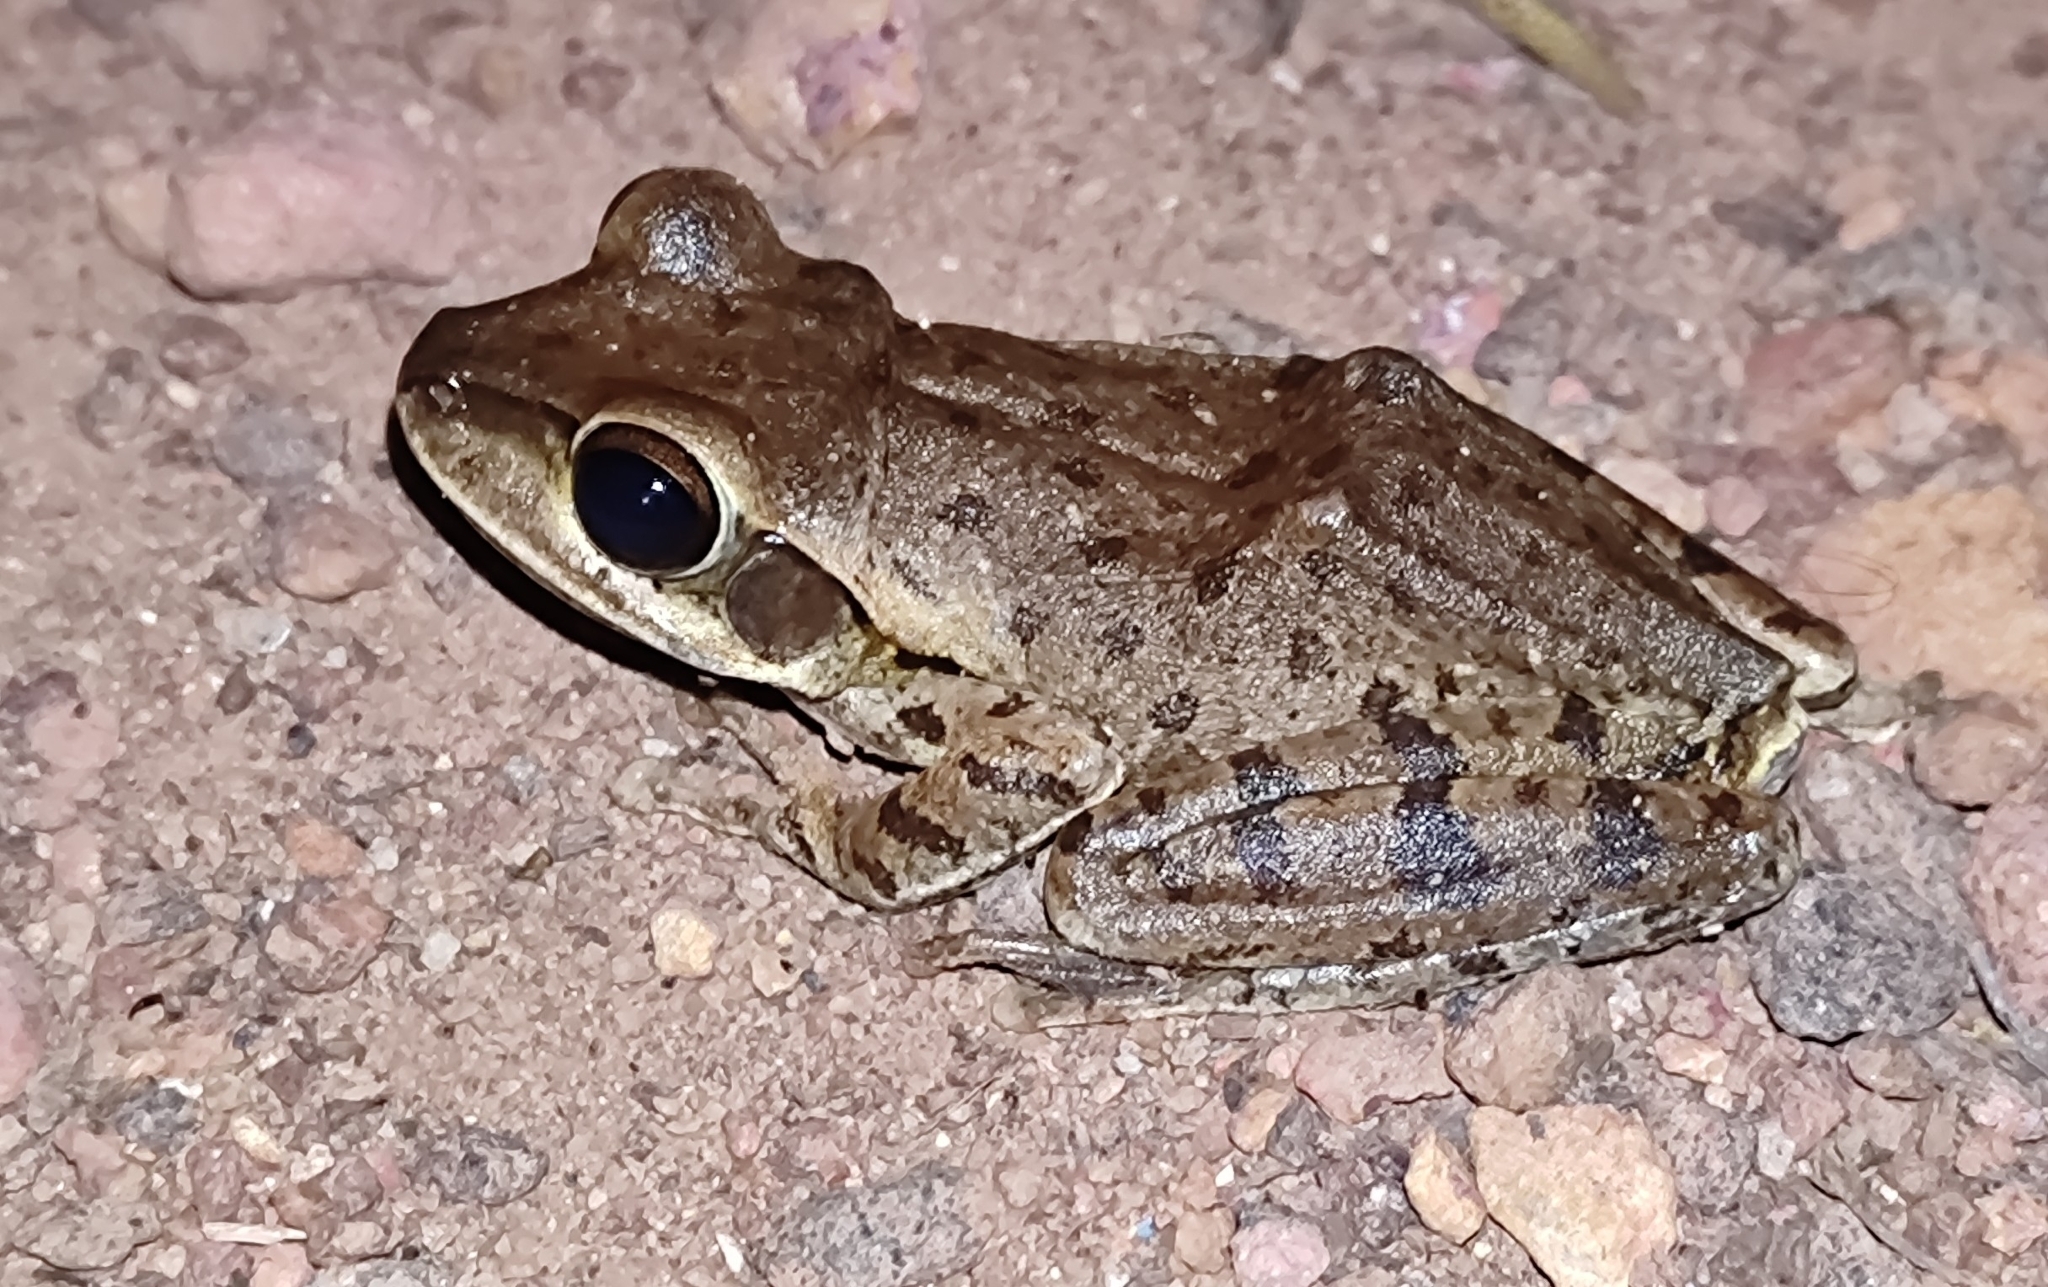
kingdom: Animalia
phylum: Chordata
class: Amphibia
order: Anura
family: Rhacophoridae
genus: Polypedates
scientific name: Polypedates maculatus
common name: Himalayan tree frog
